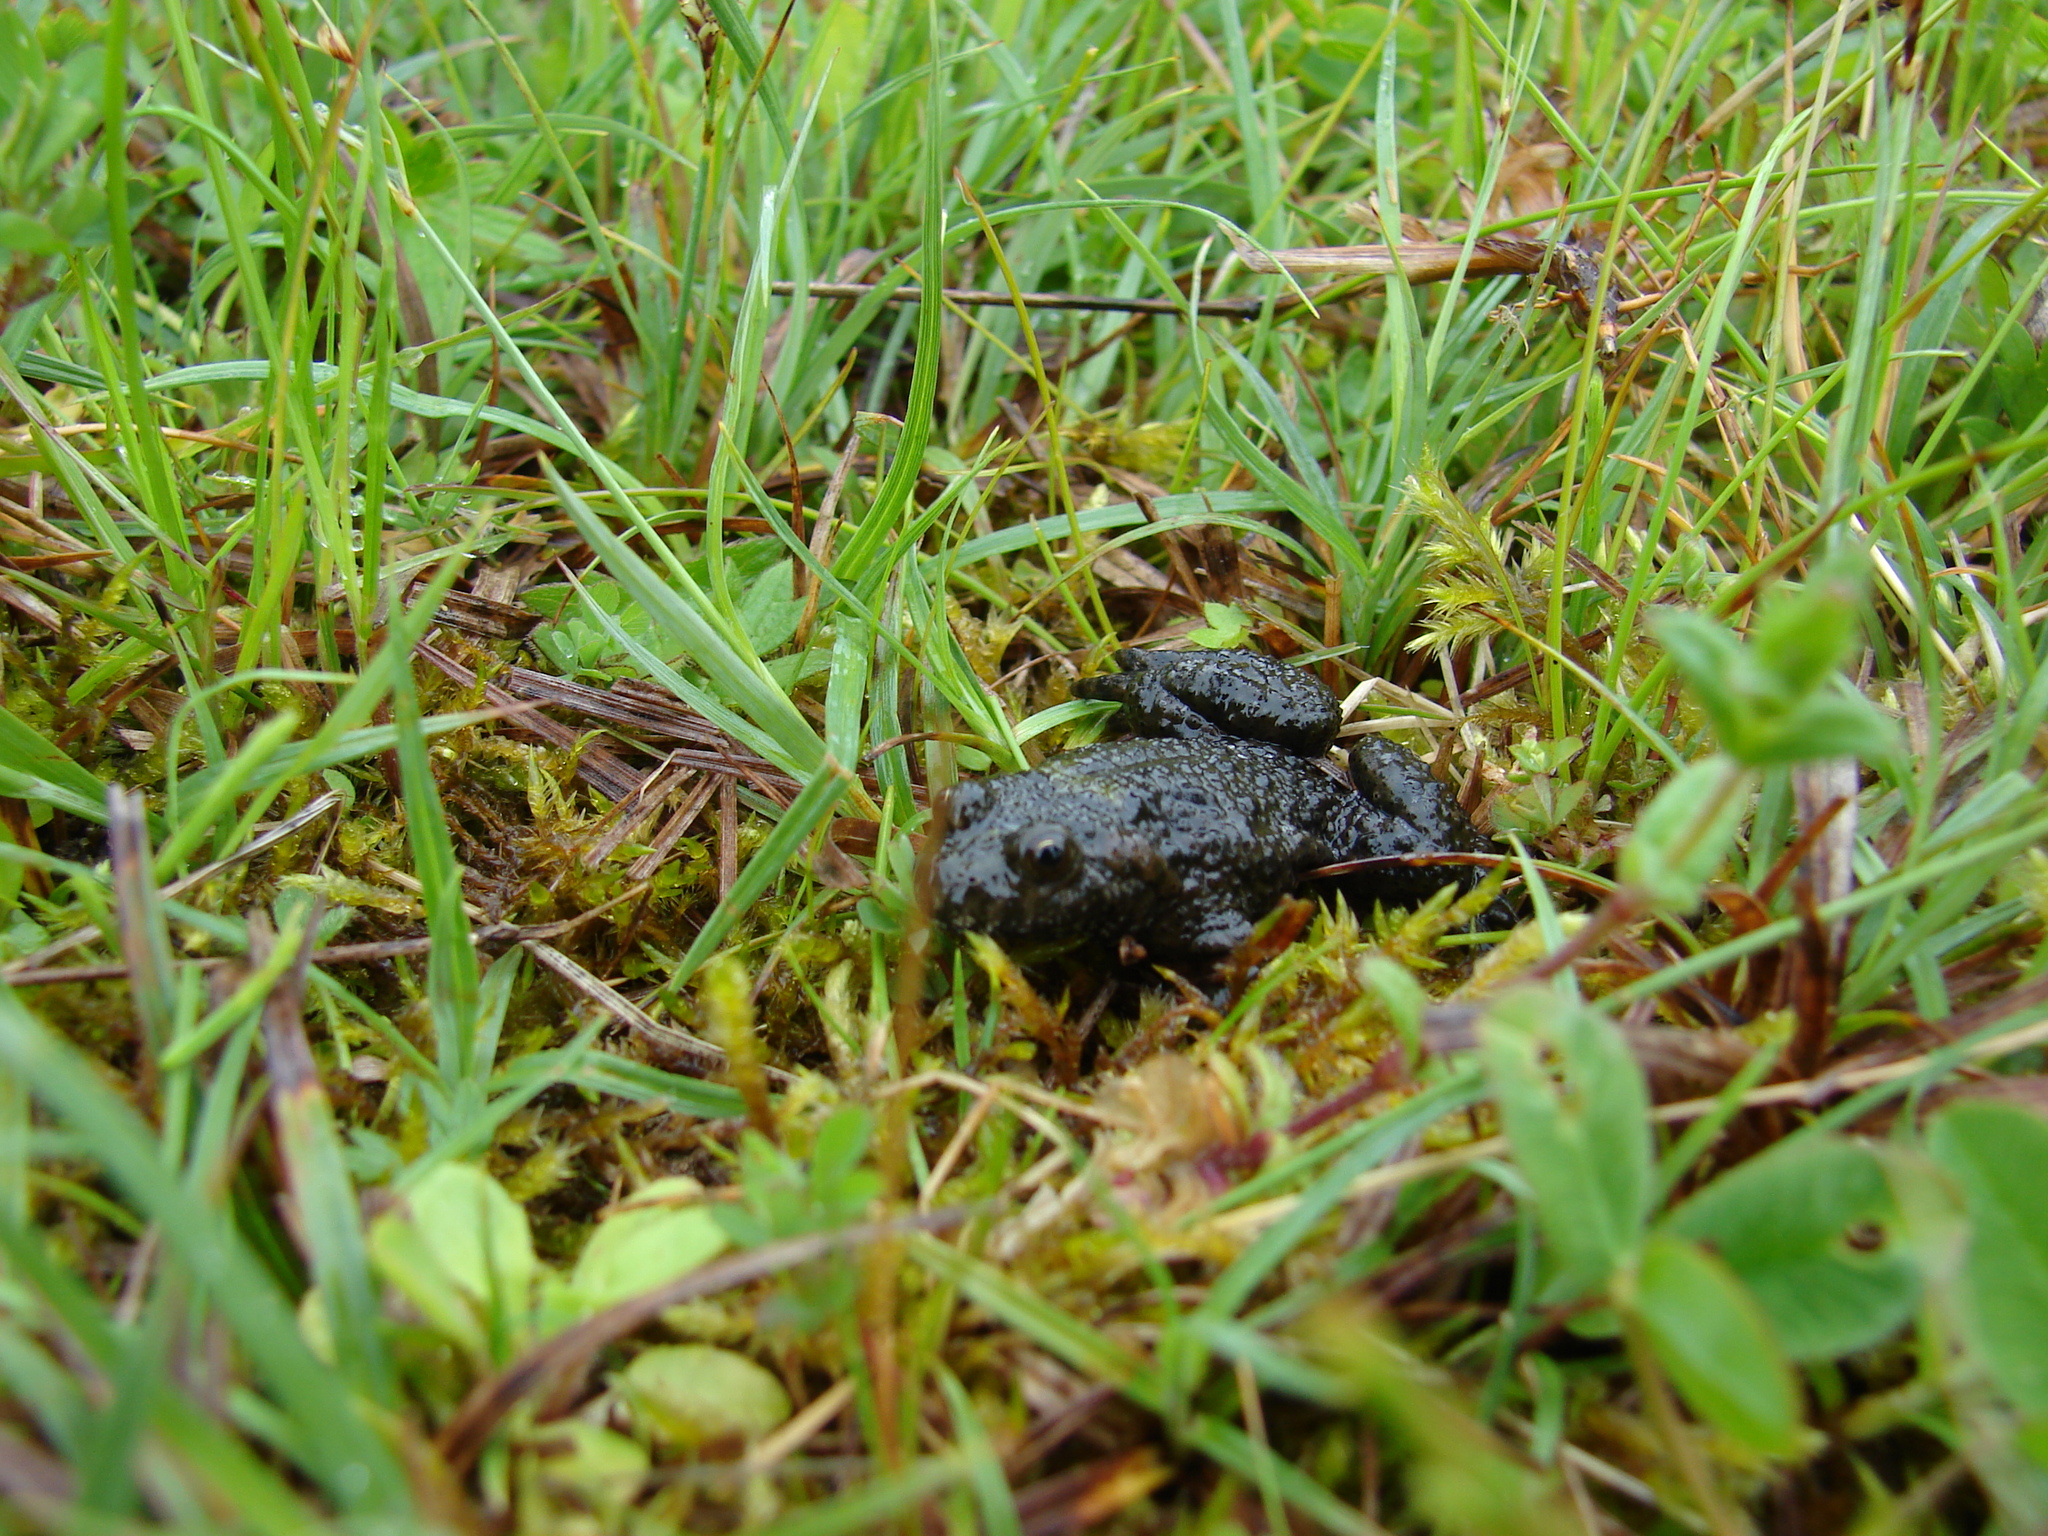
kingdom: Animalia
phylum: Chordata
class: Amphibia
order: Anura
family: Bombinatoridae
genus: Bombina
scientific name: Bombina bombina
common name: Fire-bellied toad
